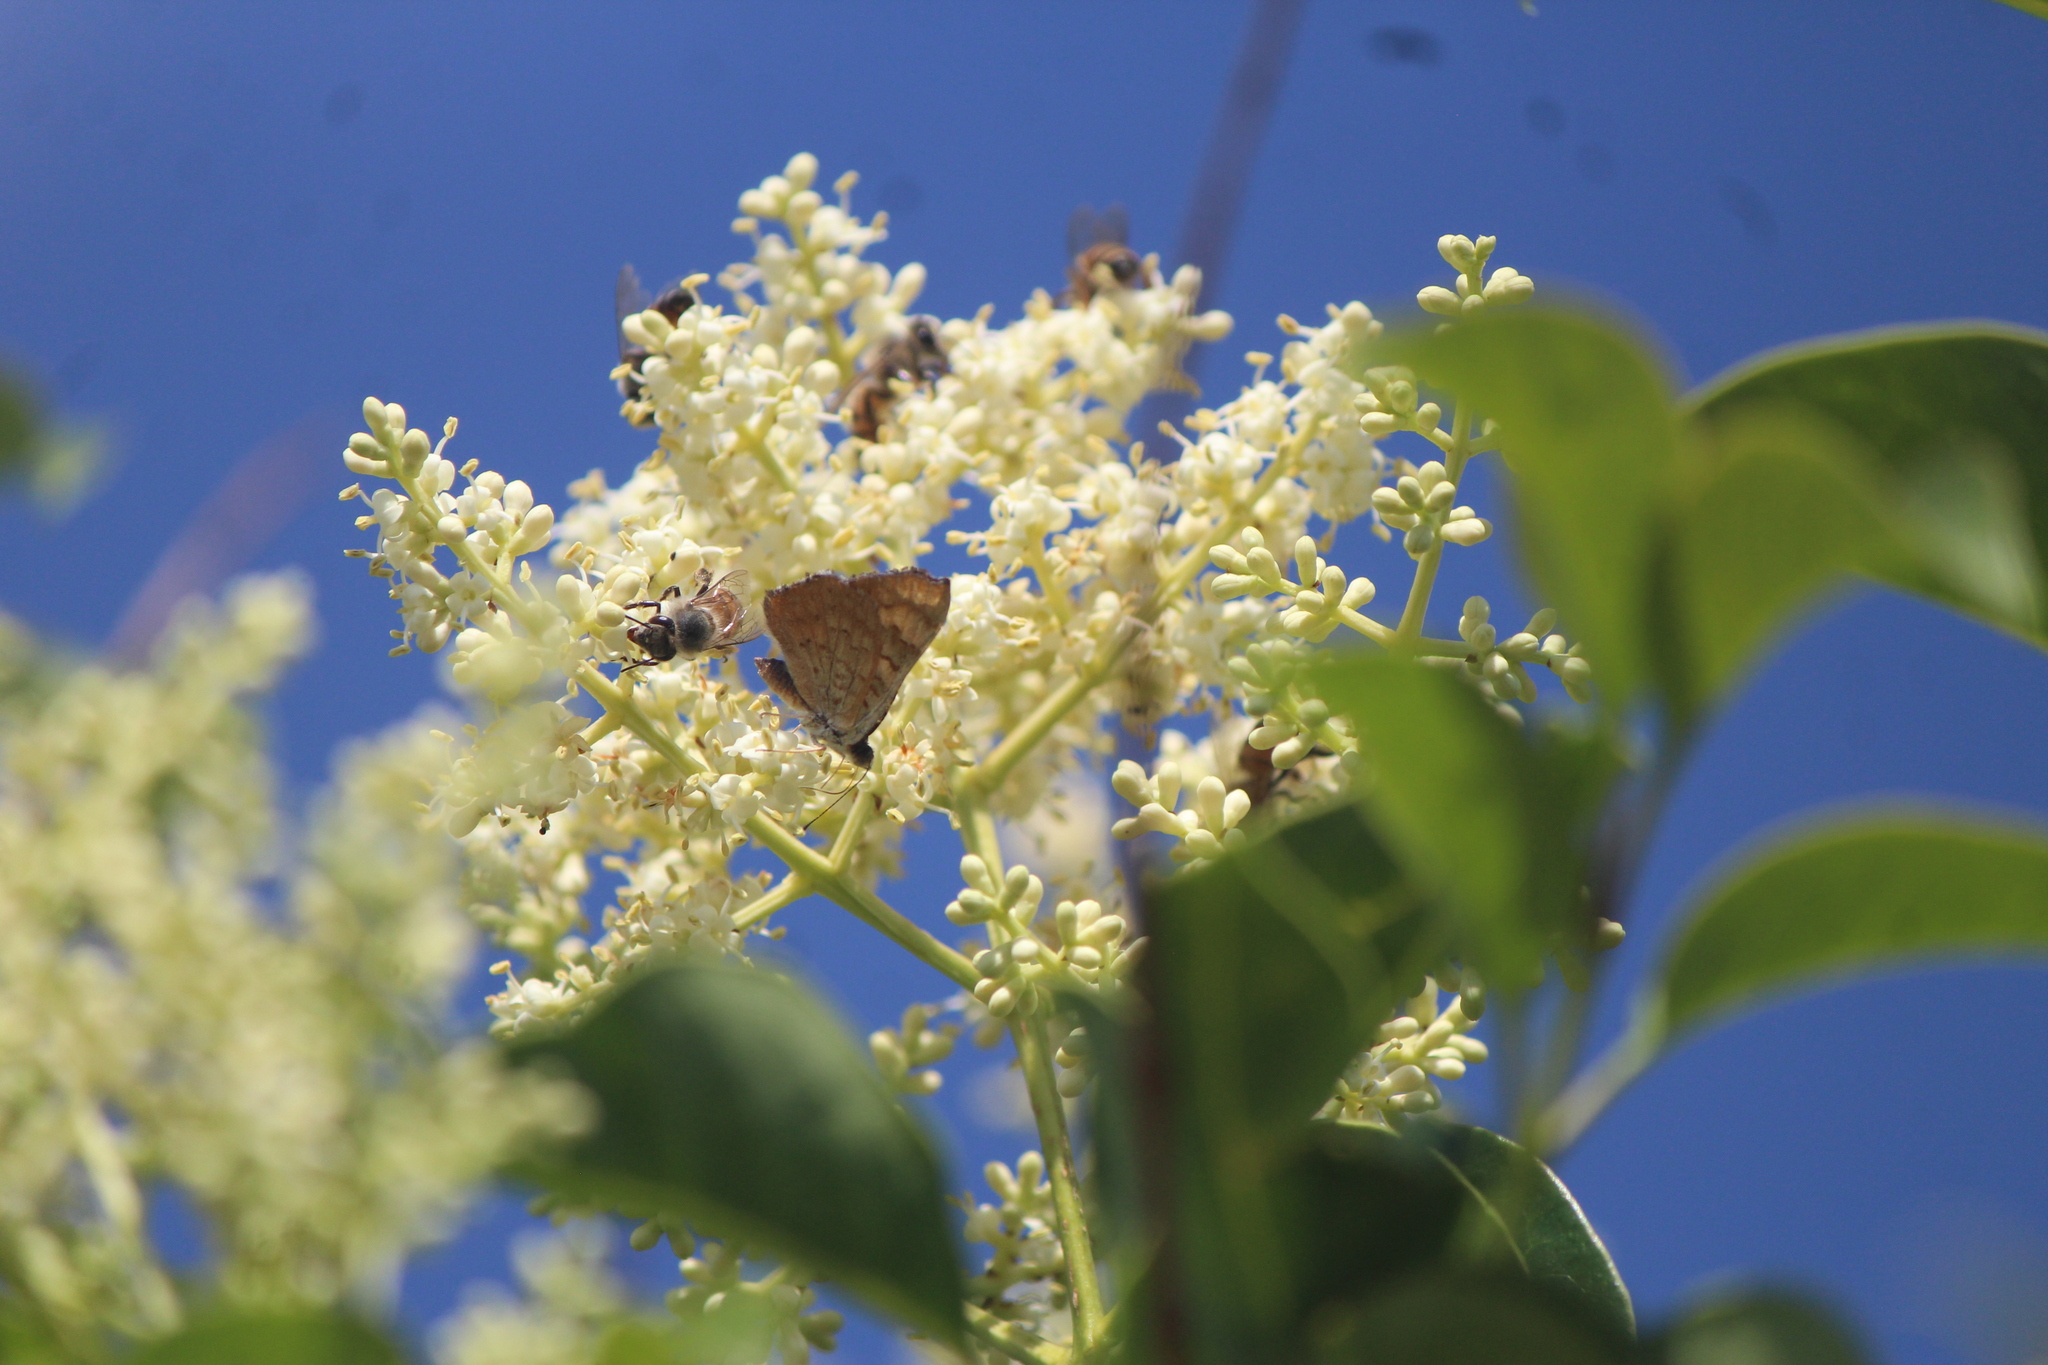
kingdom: Animalia
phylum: Arthropoda
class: Insecta
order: Lepidoptera
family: Riodinidae
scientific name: Riodinidae
